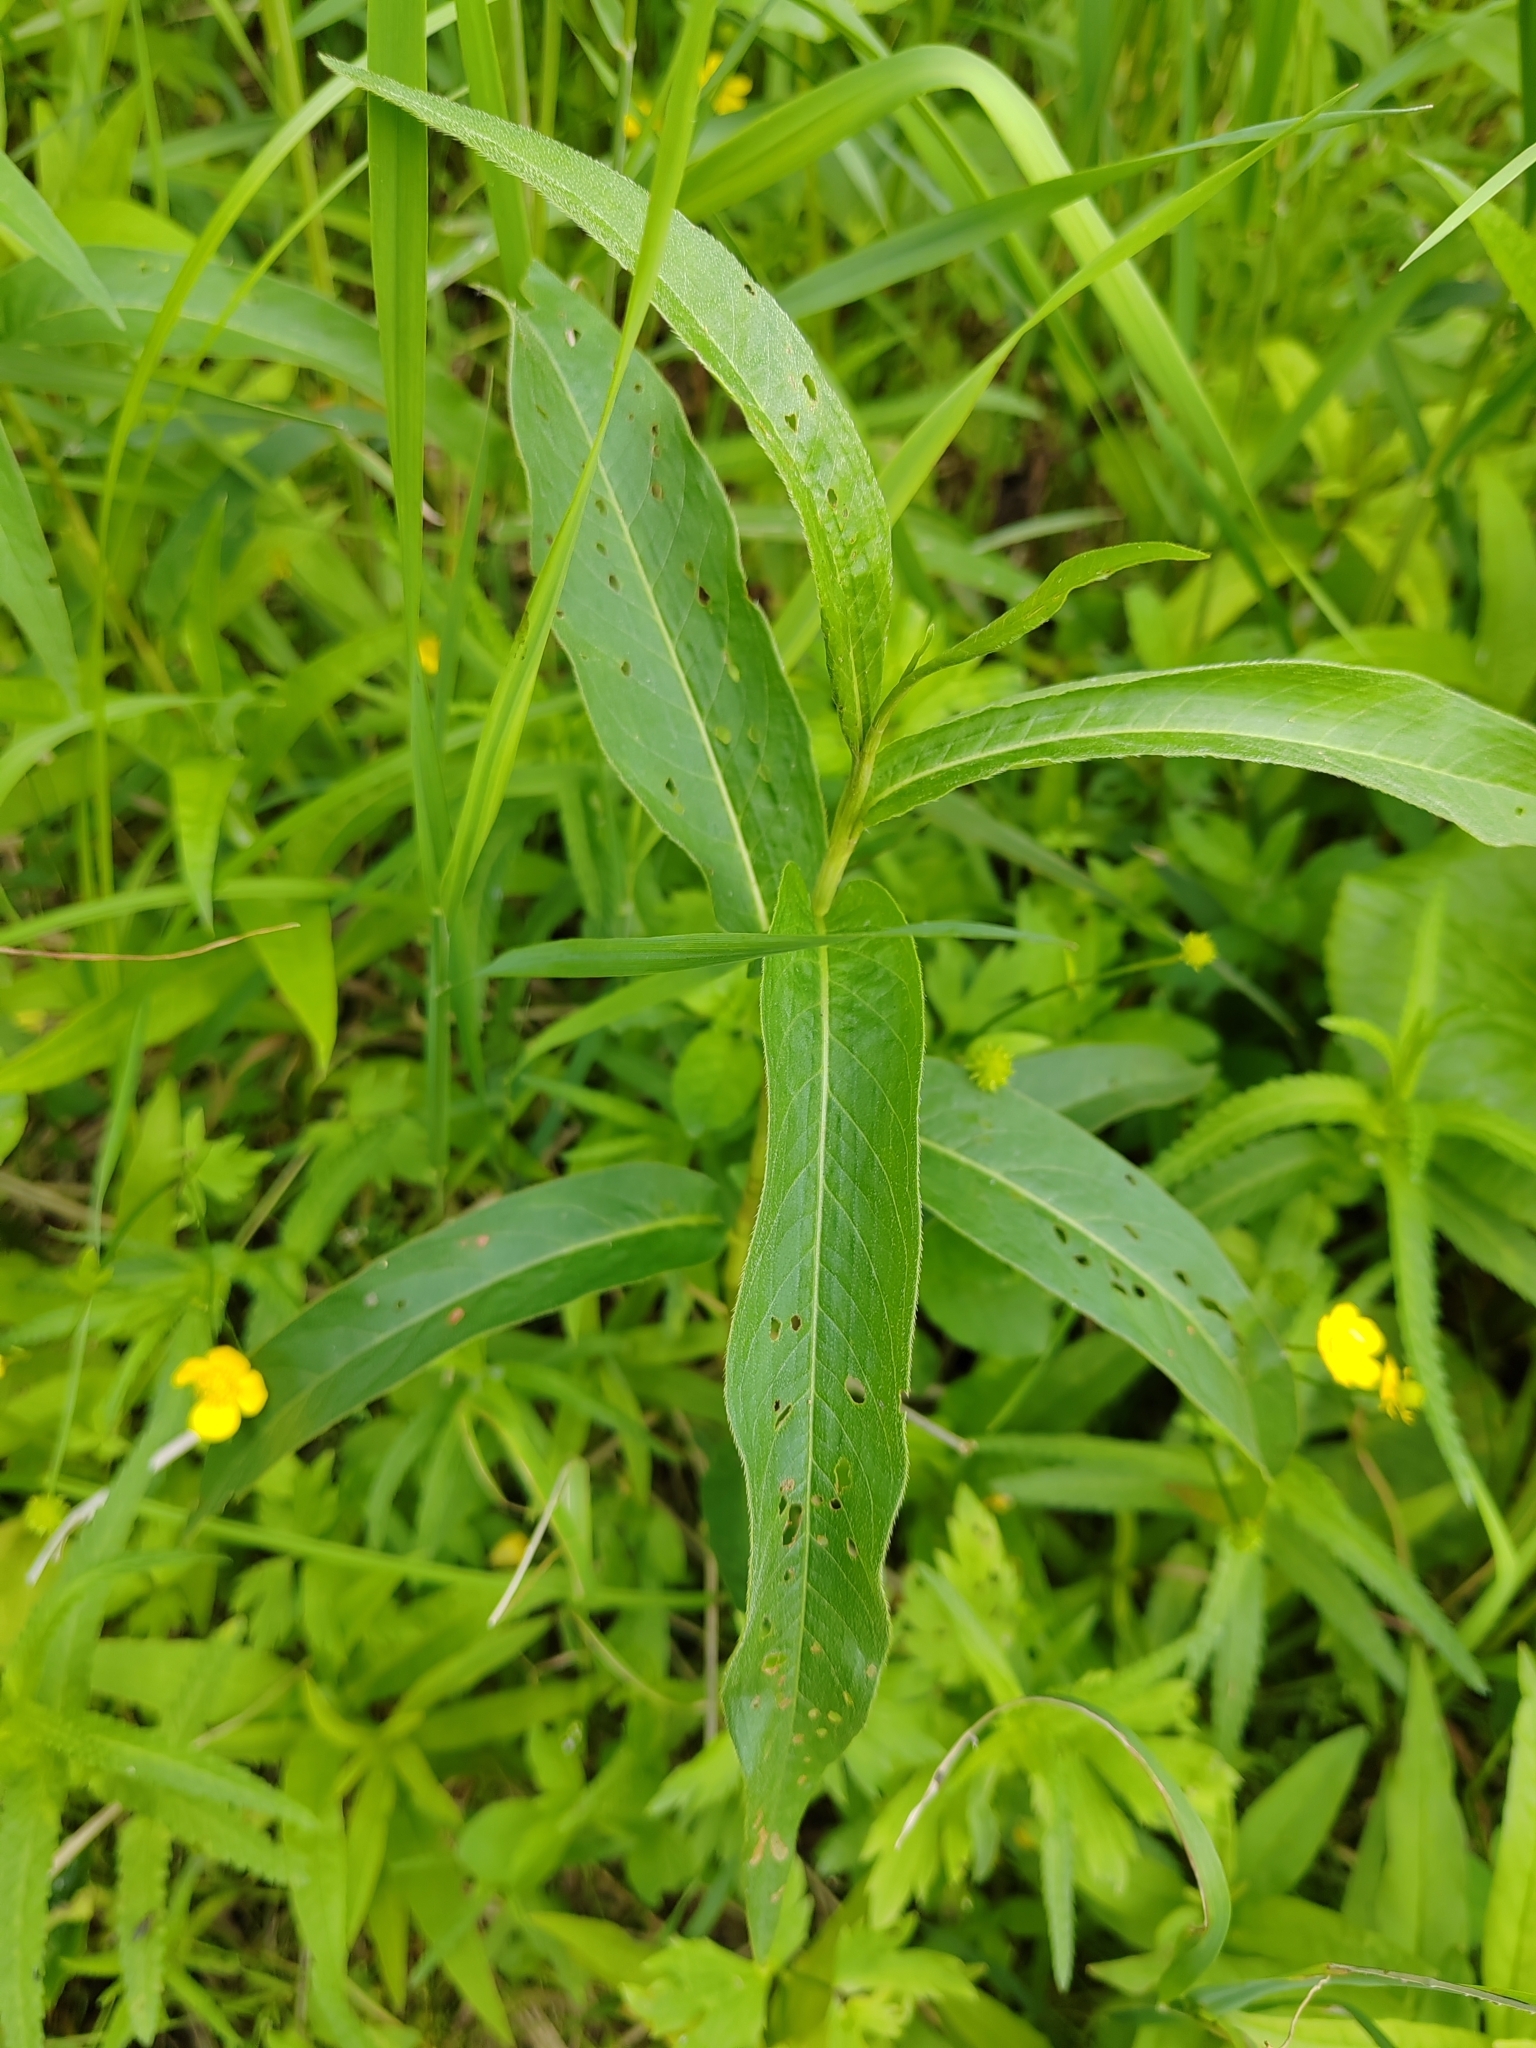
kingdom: Plantae
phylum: Tracheophyta
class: Magnoliopsida
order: Caryophyllales
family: Polygonaceae
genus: Persicaria
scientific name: Persicaria amphibia
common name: Amphibious bistort
